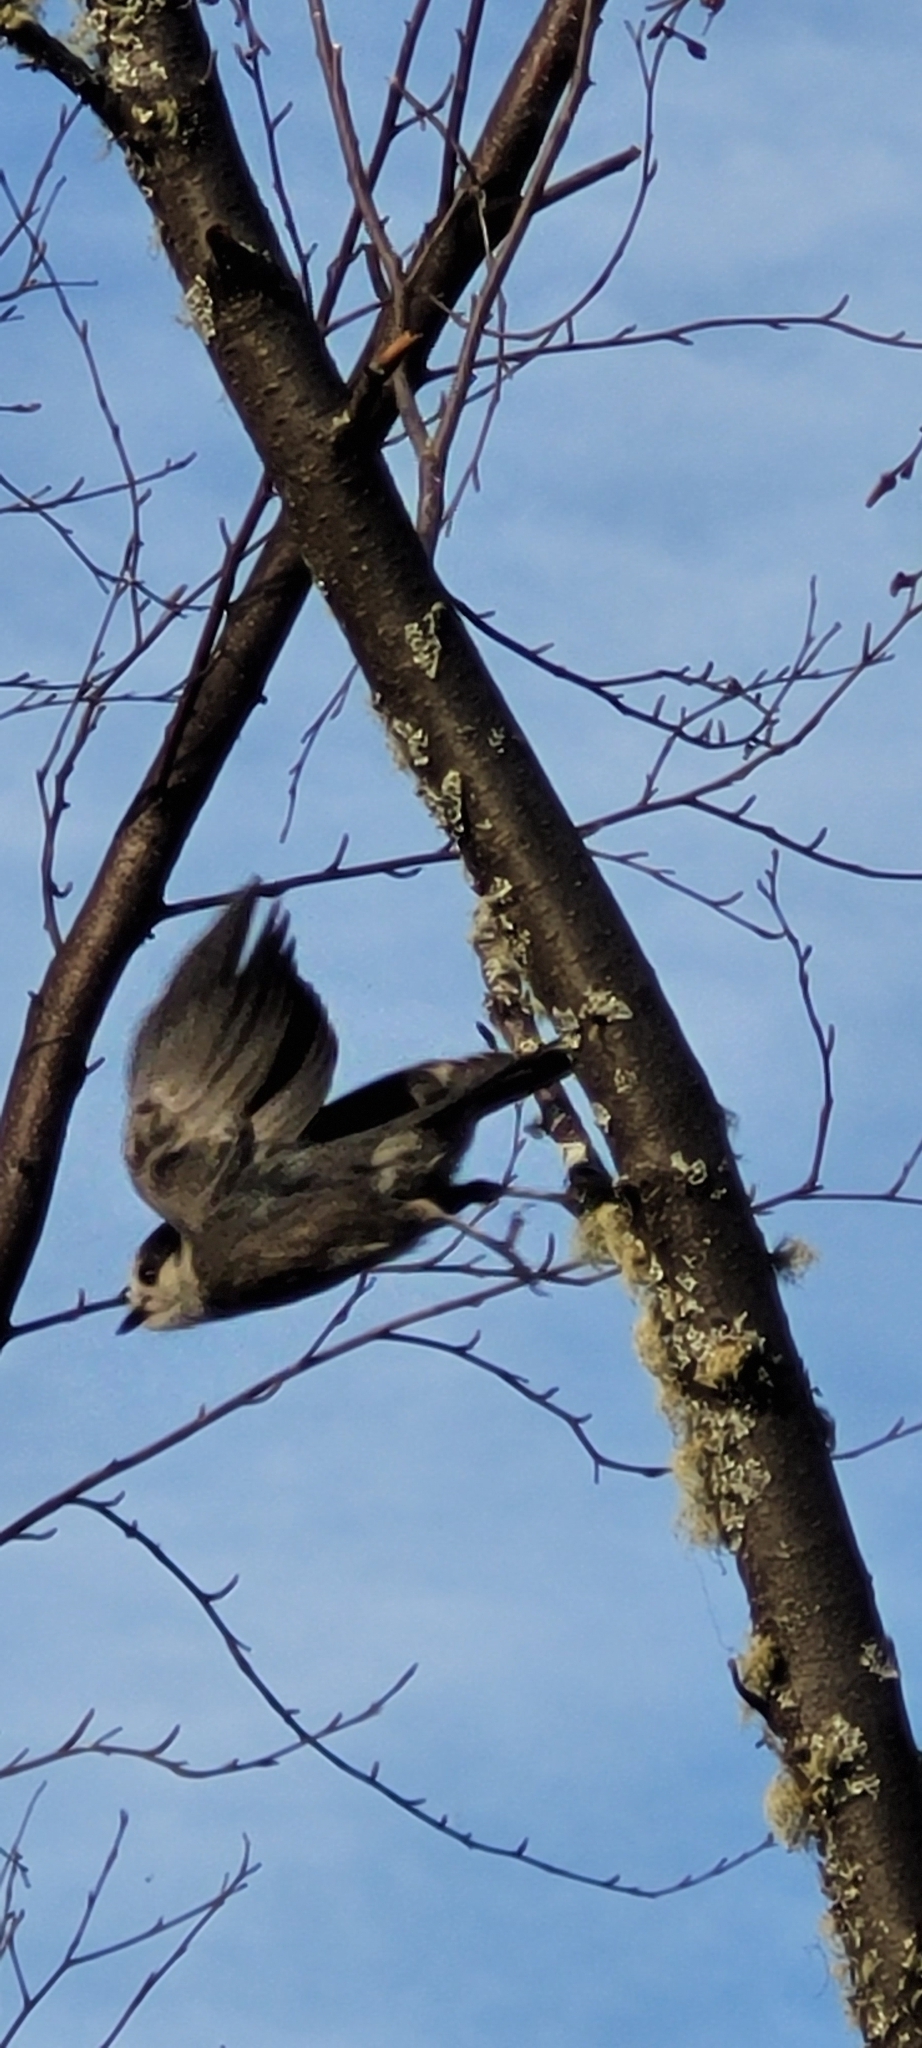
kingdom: Animalia
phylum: Chordata
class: Aves
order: Passeriformes
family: Corvidae
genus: Perisoreus
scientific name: Perisoreus canadensis
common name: Gray jay
